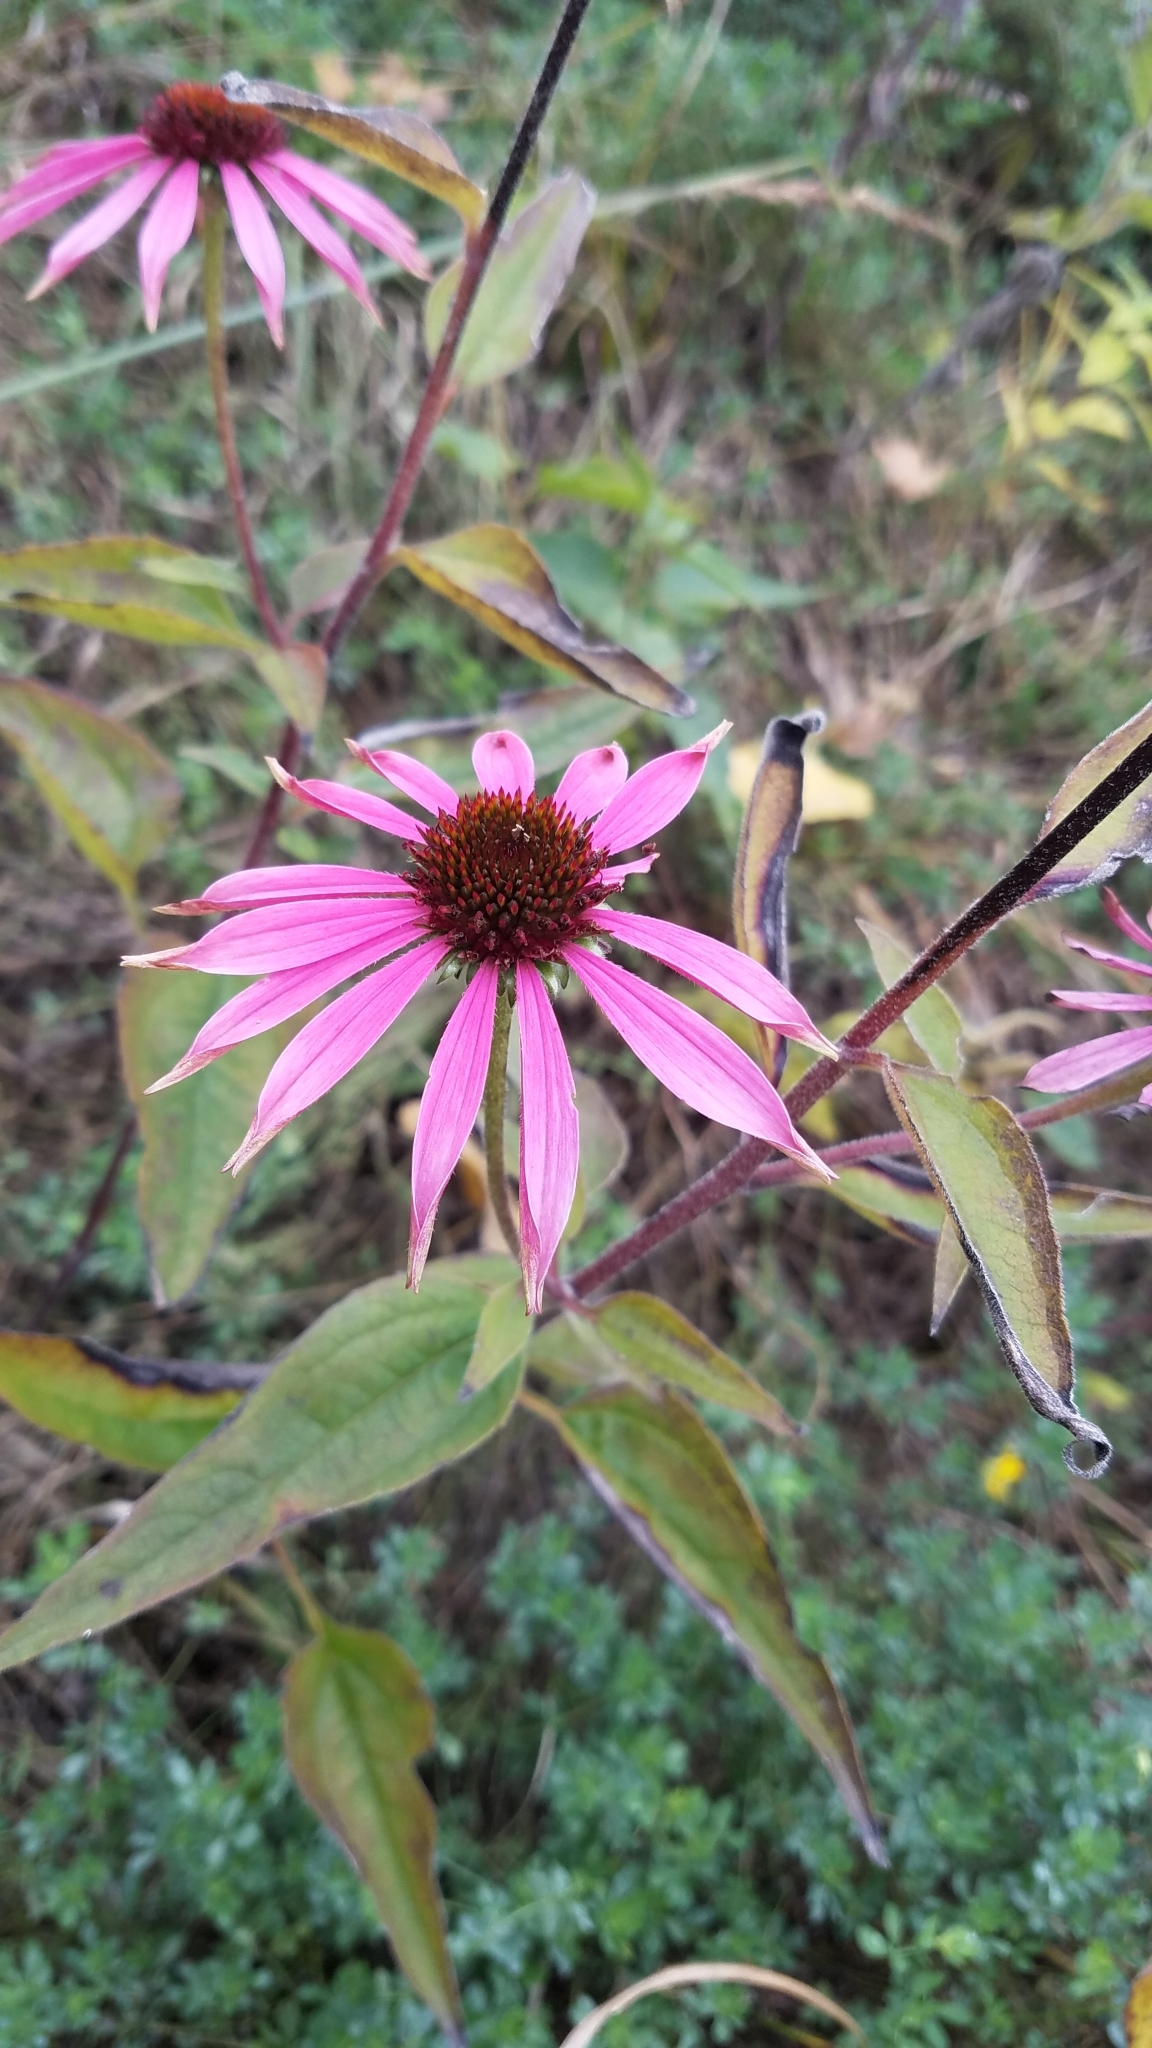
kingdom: Plantae
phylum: Tracheophyta
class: Magnoliopsida
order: Asterales
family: Asteraceae
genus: Echinacea
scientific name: Echinacea purpurea
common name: Broad-leaved purple coneflower
